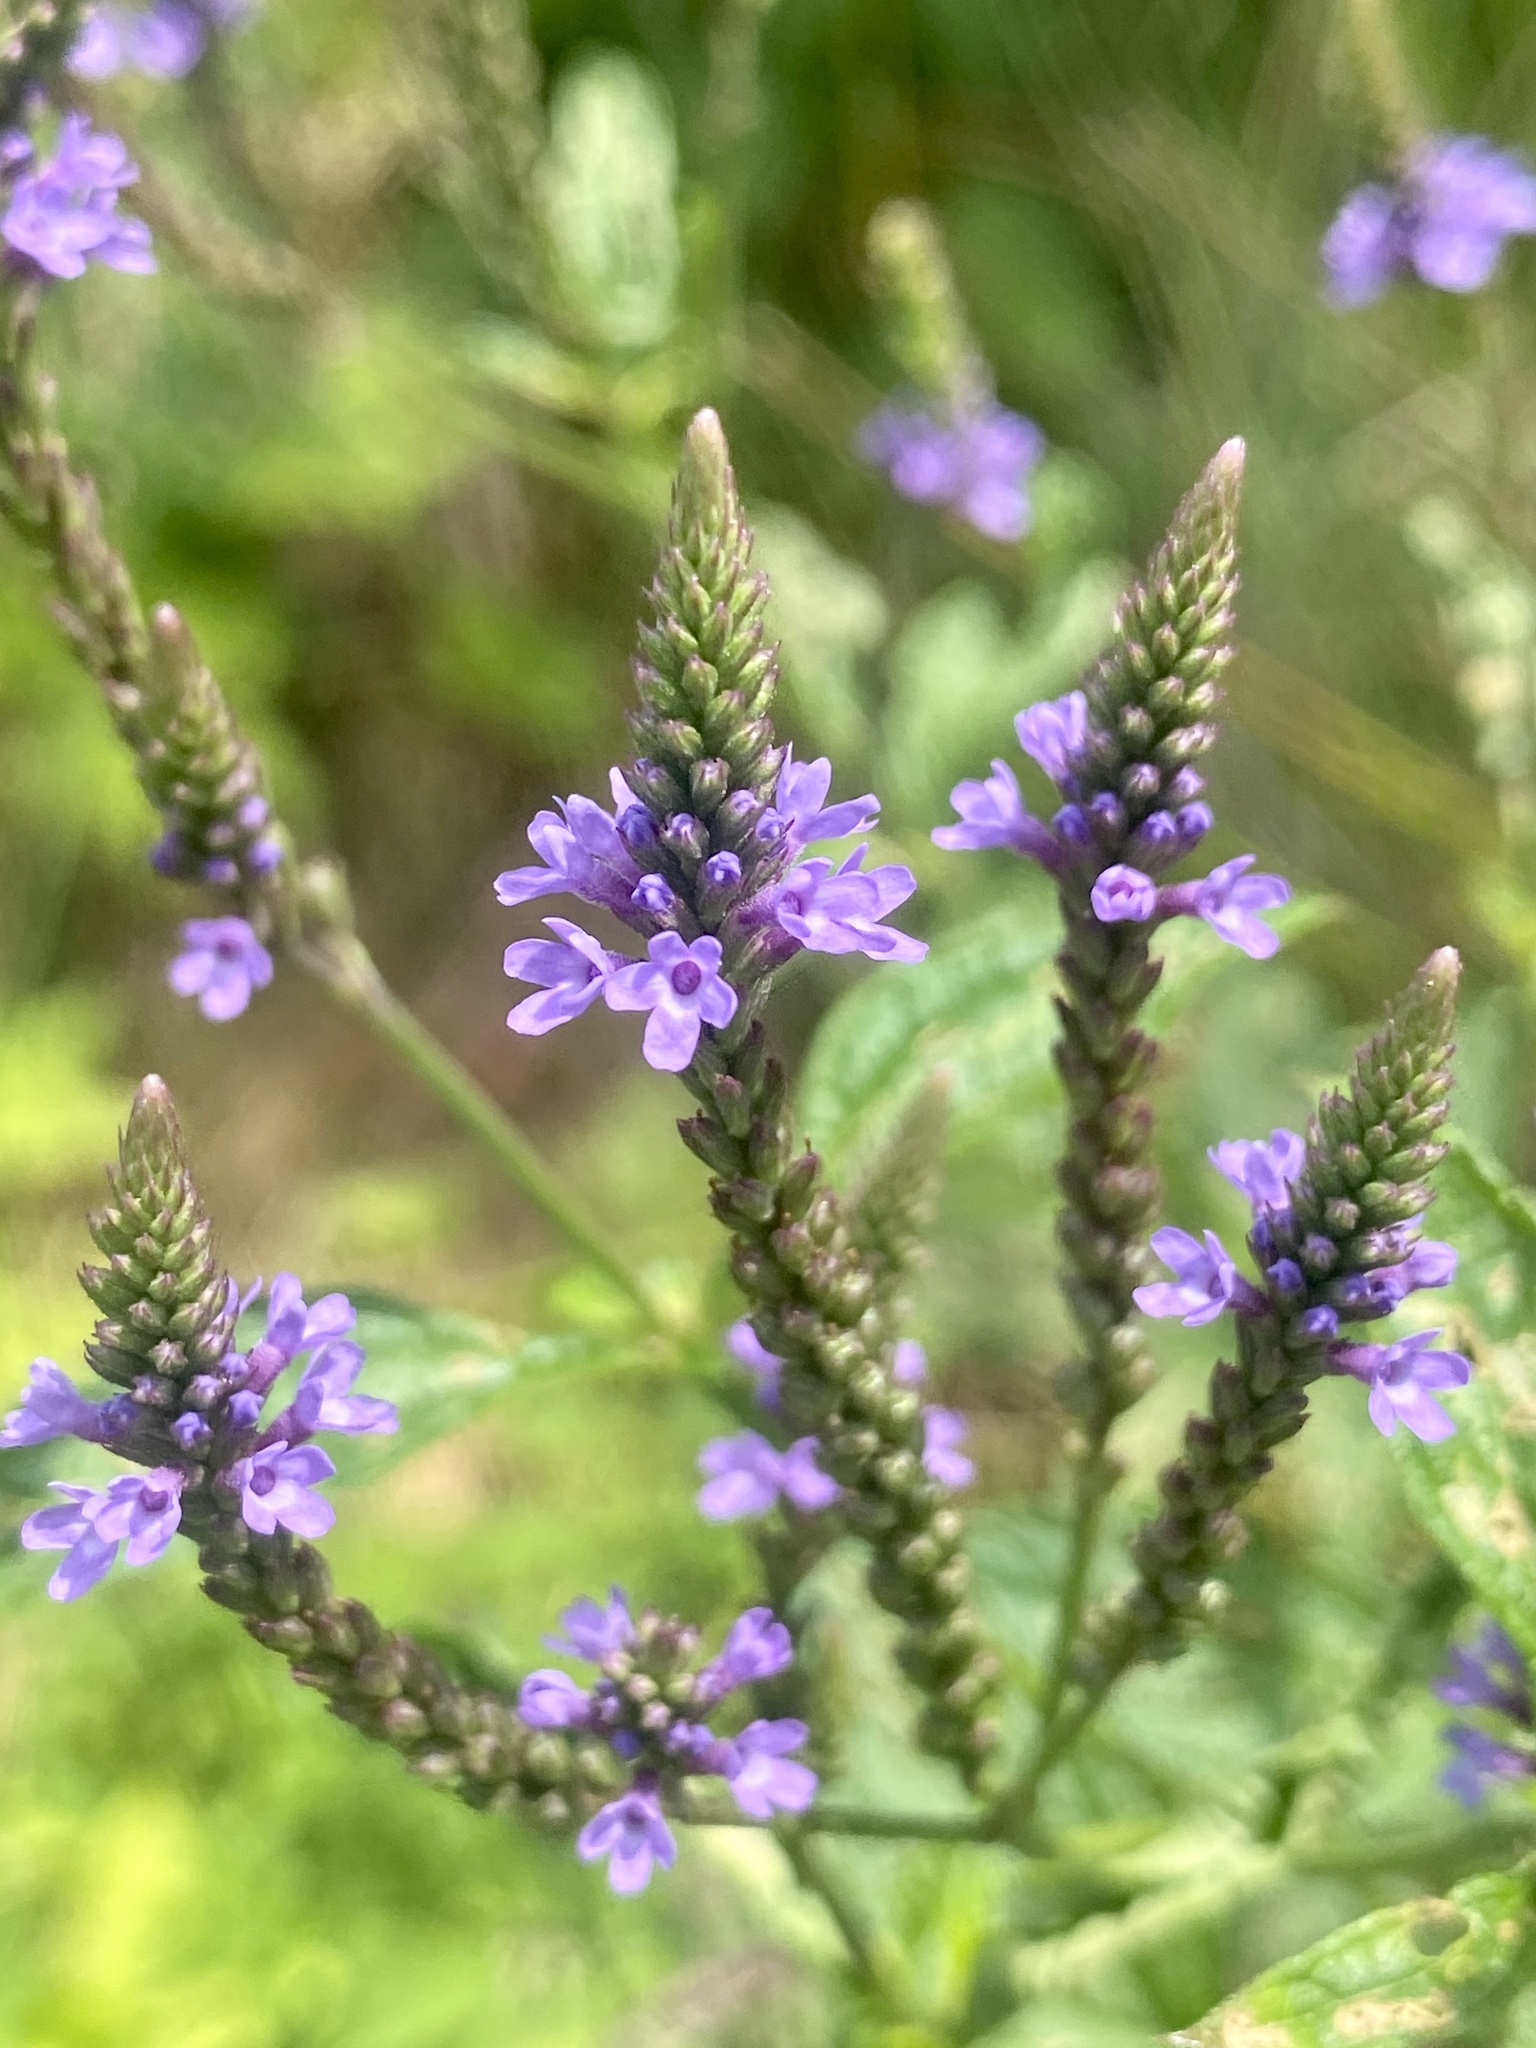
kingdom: Plantae
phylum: Tracheophyta
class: Magnoliopsida
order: Lamiales
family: Verbenaceae
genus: Verbena
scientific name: Verbena hastata
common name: American blue vervain
